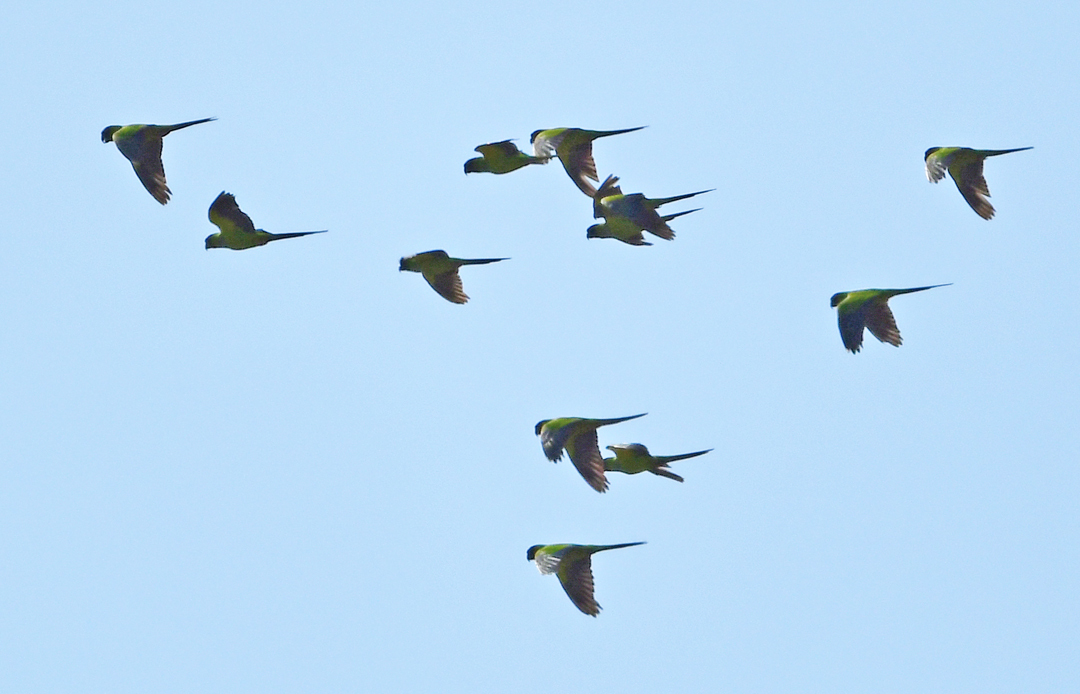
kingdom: Animalia
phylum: Chordata
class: Aves
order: Psittaciformes
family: Psittacidae
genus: Nandayus
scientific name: Nandayus nenday
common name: Nanday parakeet
